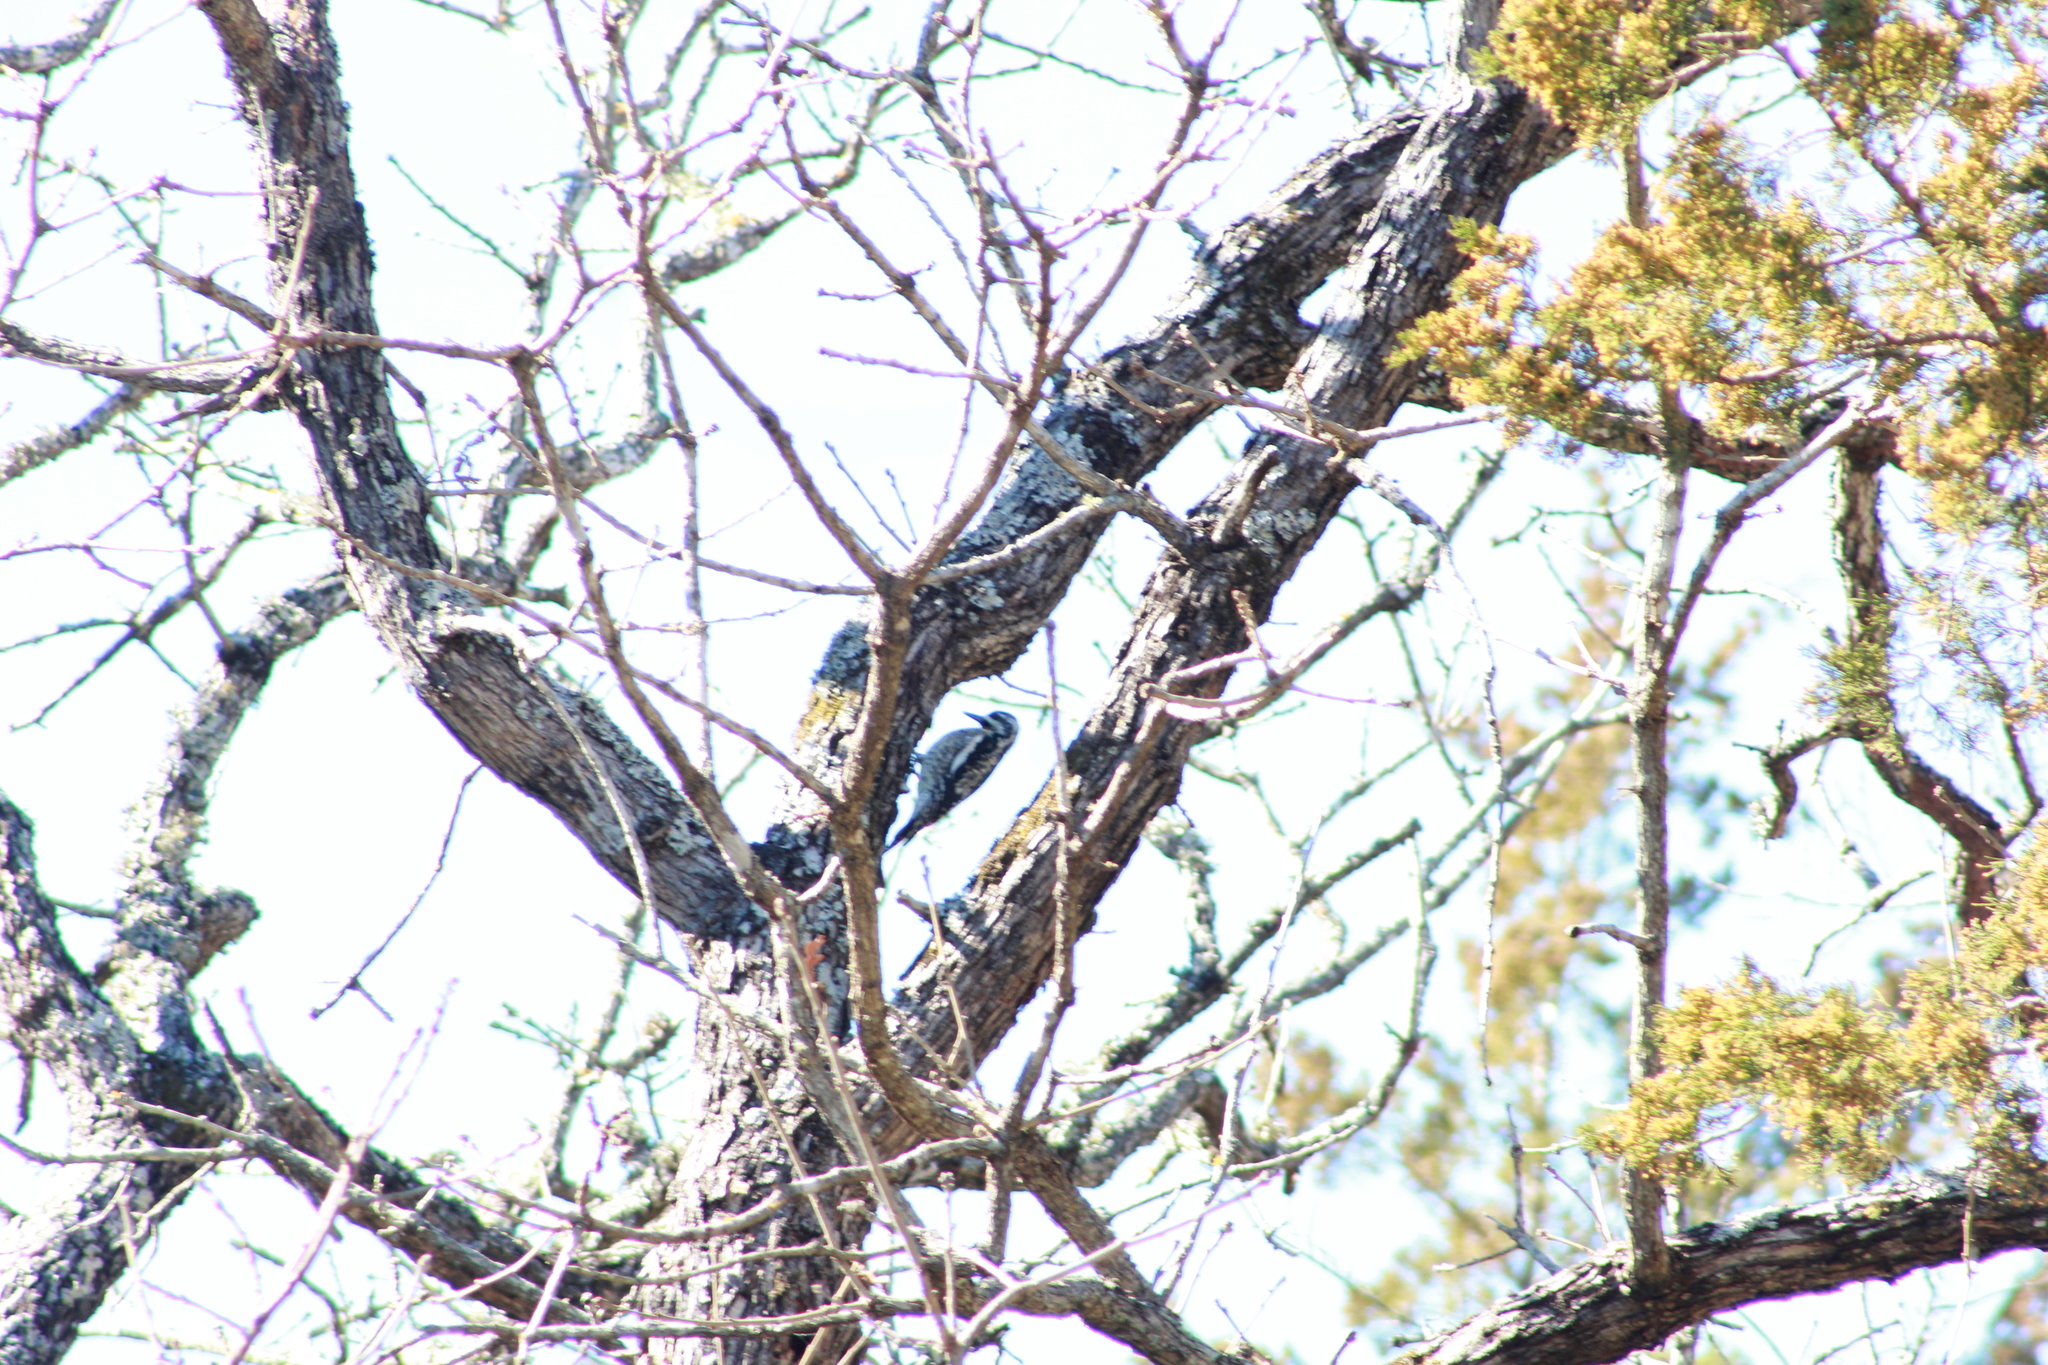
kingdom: Animalia
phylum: Chordata
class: Aves
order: Piciformes
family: Picidae
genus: Sphyrapicus
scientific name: Sphyrapicus varius
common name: Yellow-bellied sapsucker
